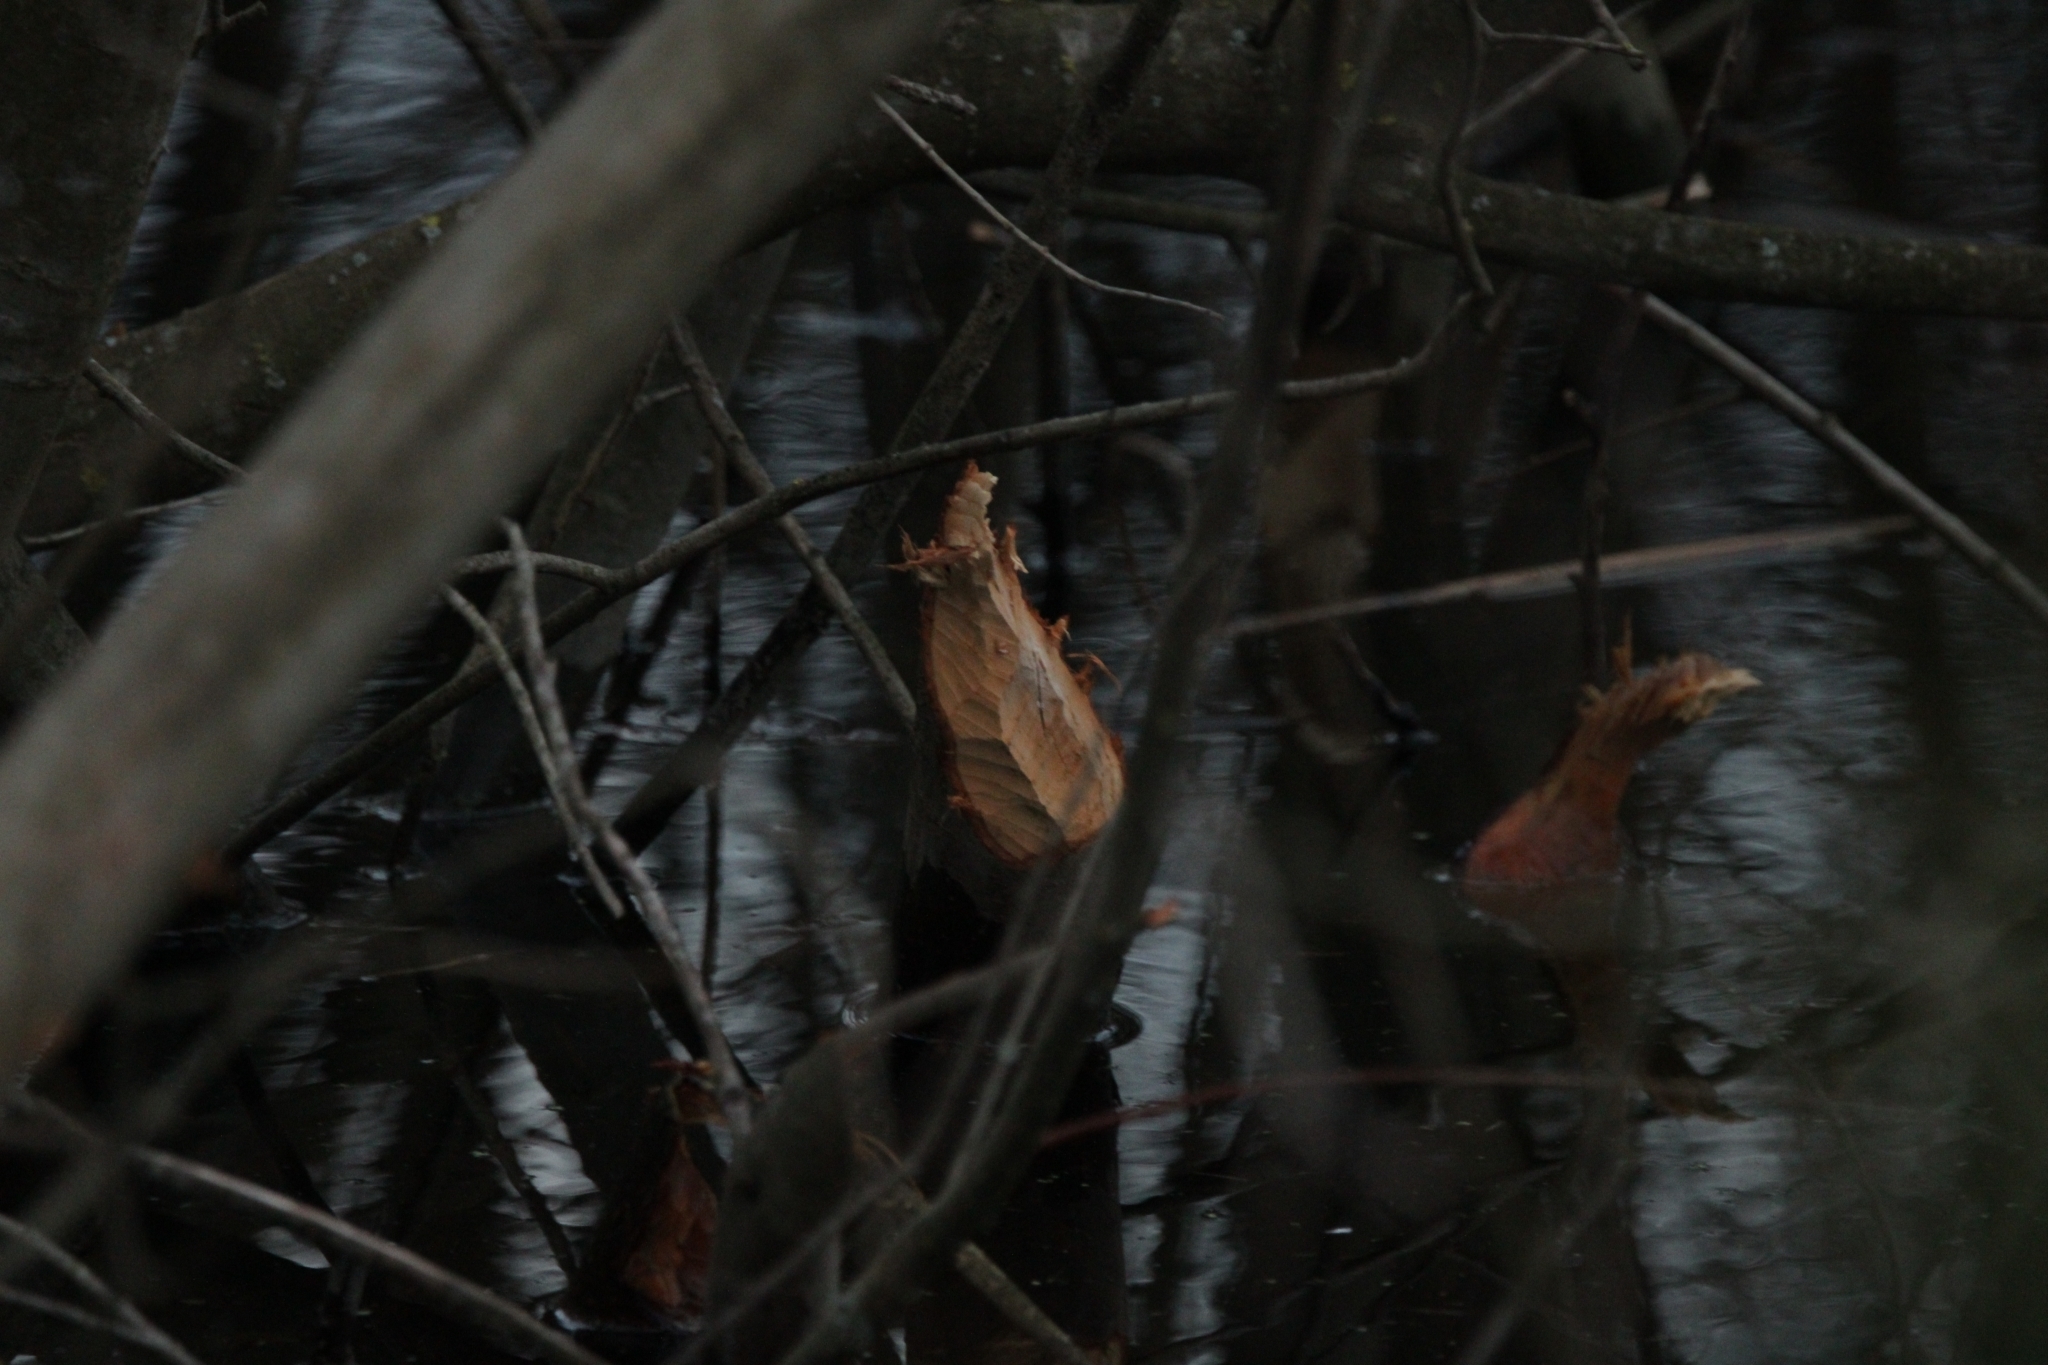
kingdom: Animalia
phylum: Chordata
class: Mammalia
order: Rodentia
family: Castoridae
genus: Castor
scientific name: Castor fiber
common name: Eurasian beaver
